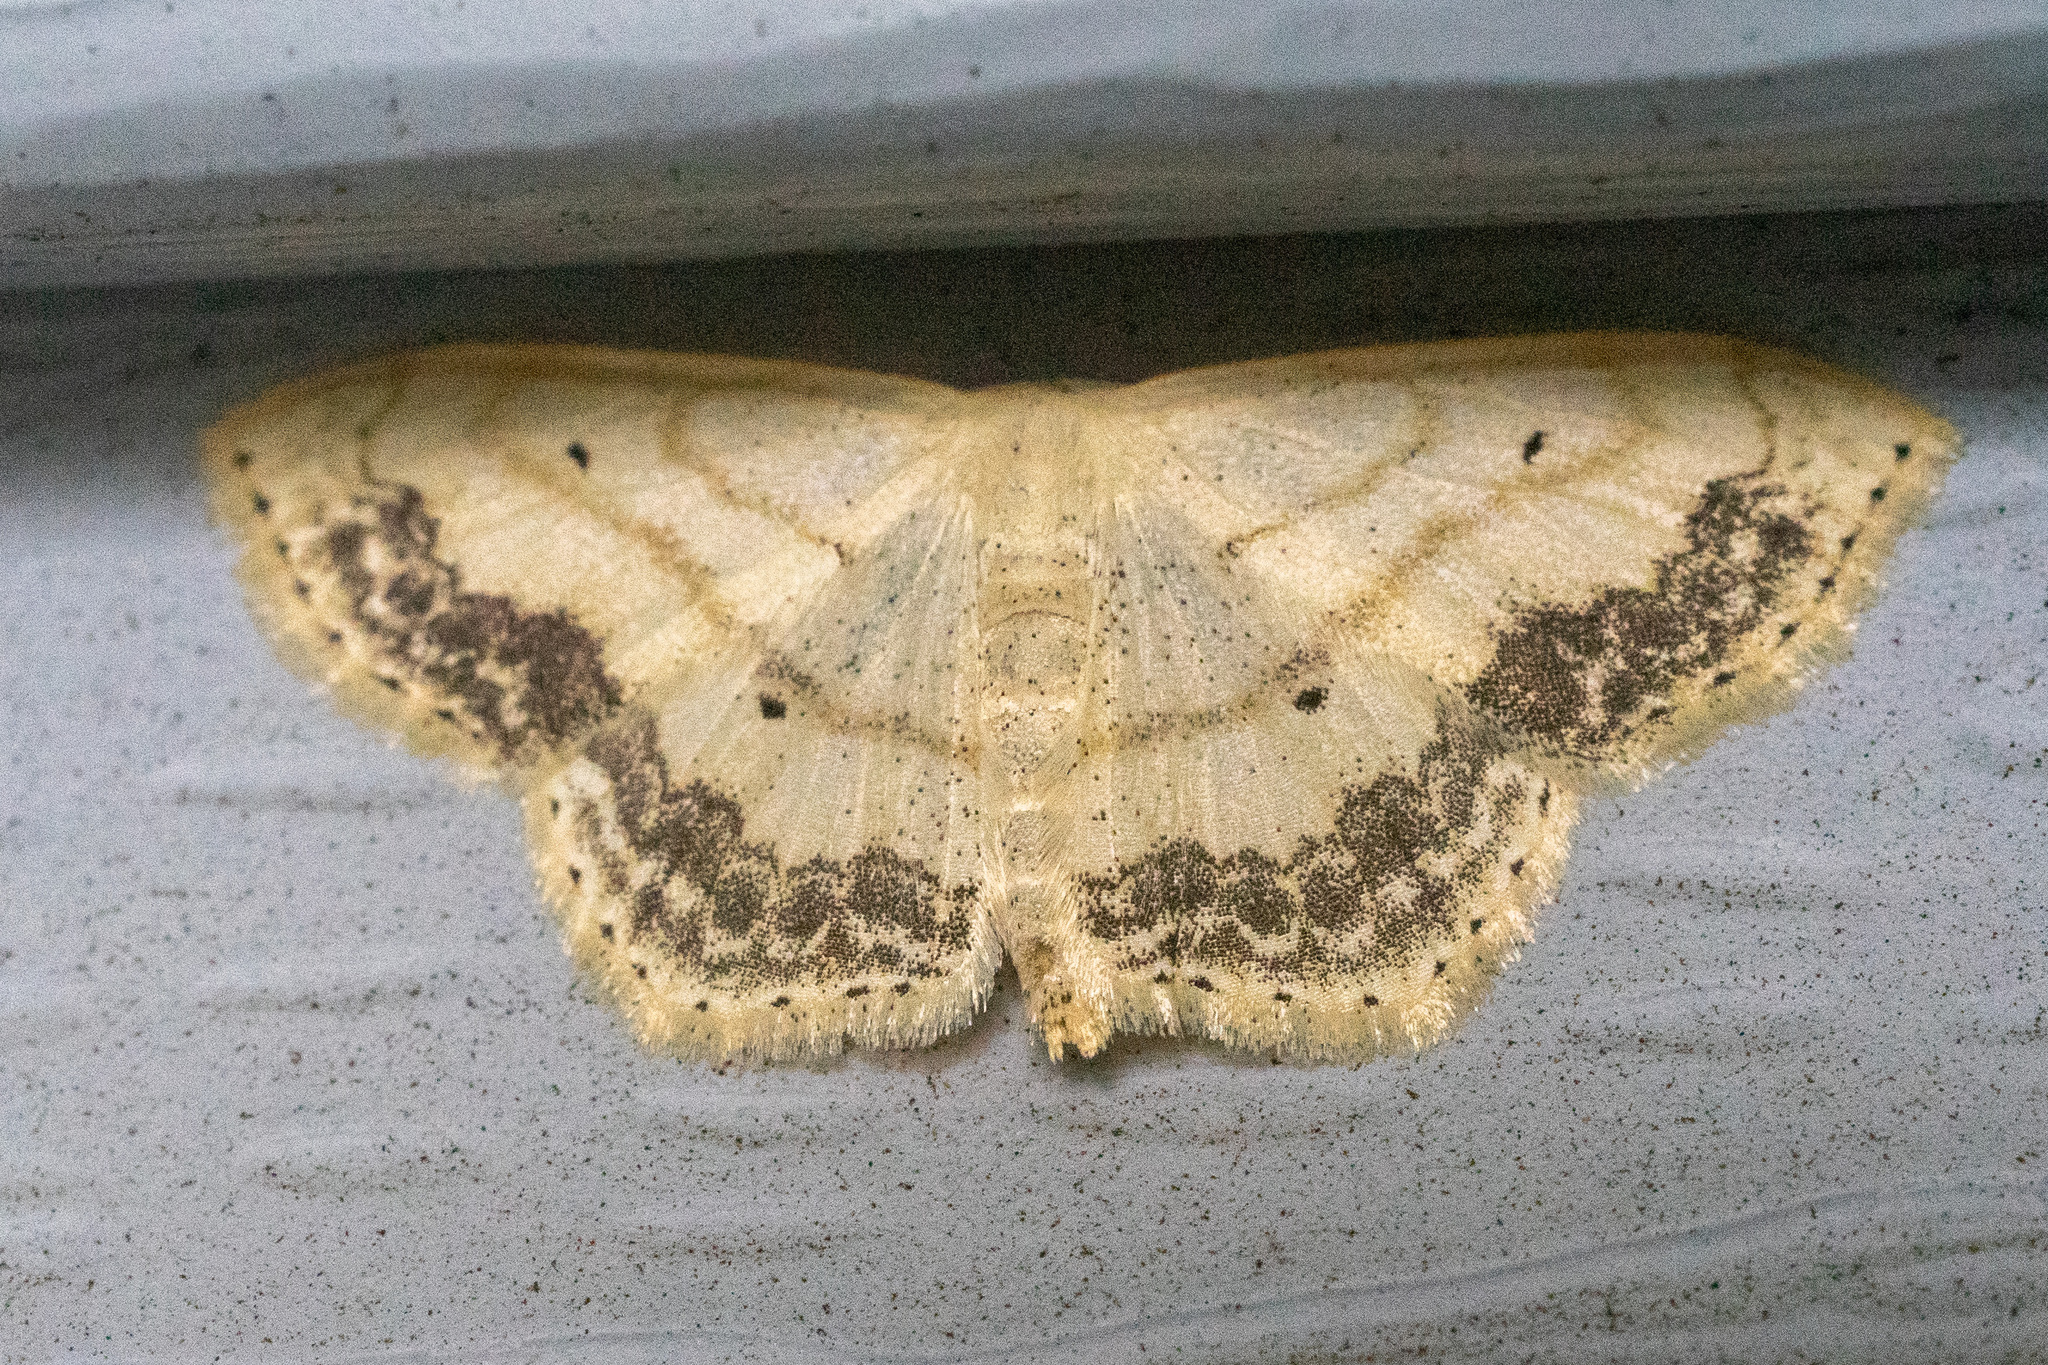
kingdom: Animalia
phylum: Arthropoda
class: Insecta
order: Lepidoptera
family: Geometridae
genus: Scopula
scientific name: Scopula limboundata
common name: Large lace border
